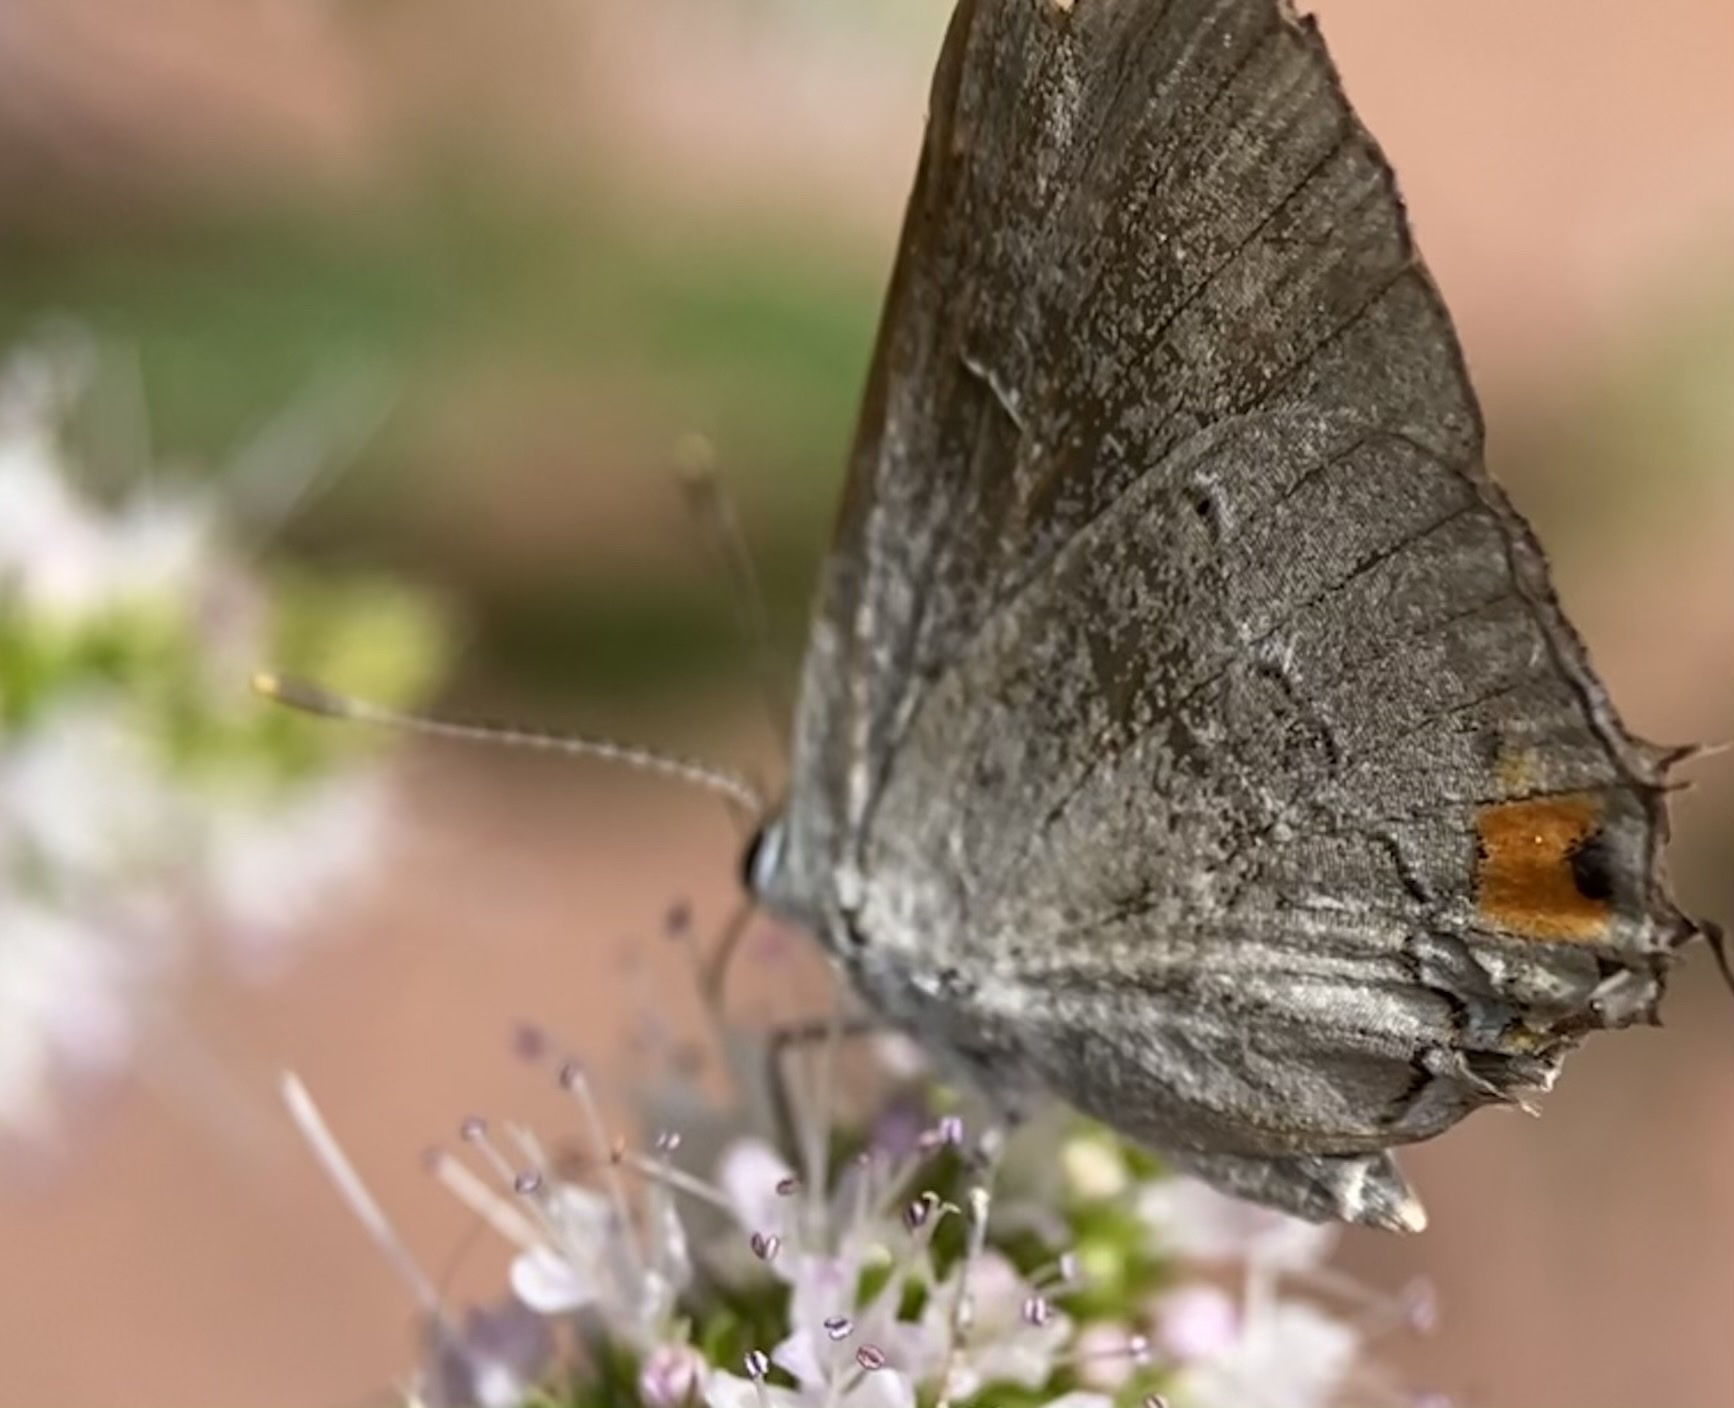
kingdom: Animalia
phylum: Arthropoda
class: Insecta
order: Lepidoptera
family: Lycaenidae
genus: Strymon
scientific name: Strymon melinus
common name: Gray hairstreak
